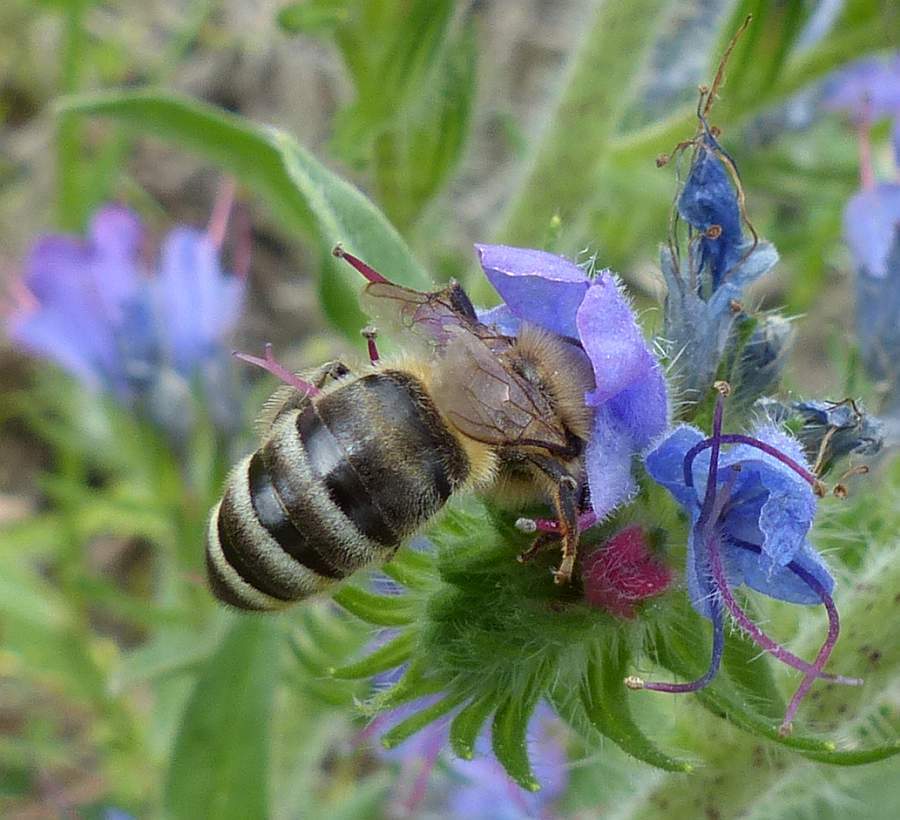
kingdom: Animalia
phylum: Arthropoda
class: Insecta
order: Hymenoptera
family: Apidae
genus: Apis
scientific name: Apis mellifera
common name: Honey bee
